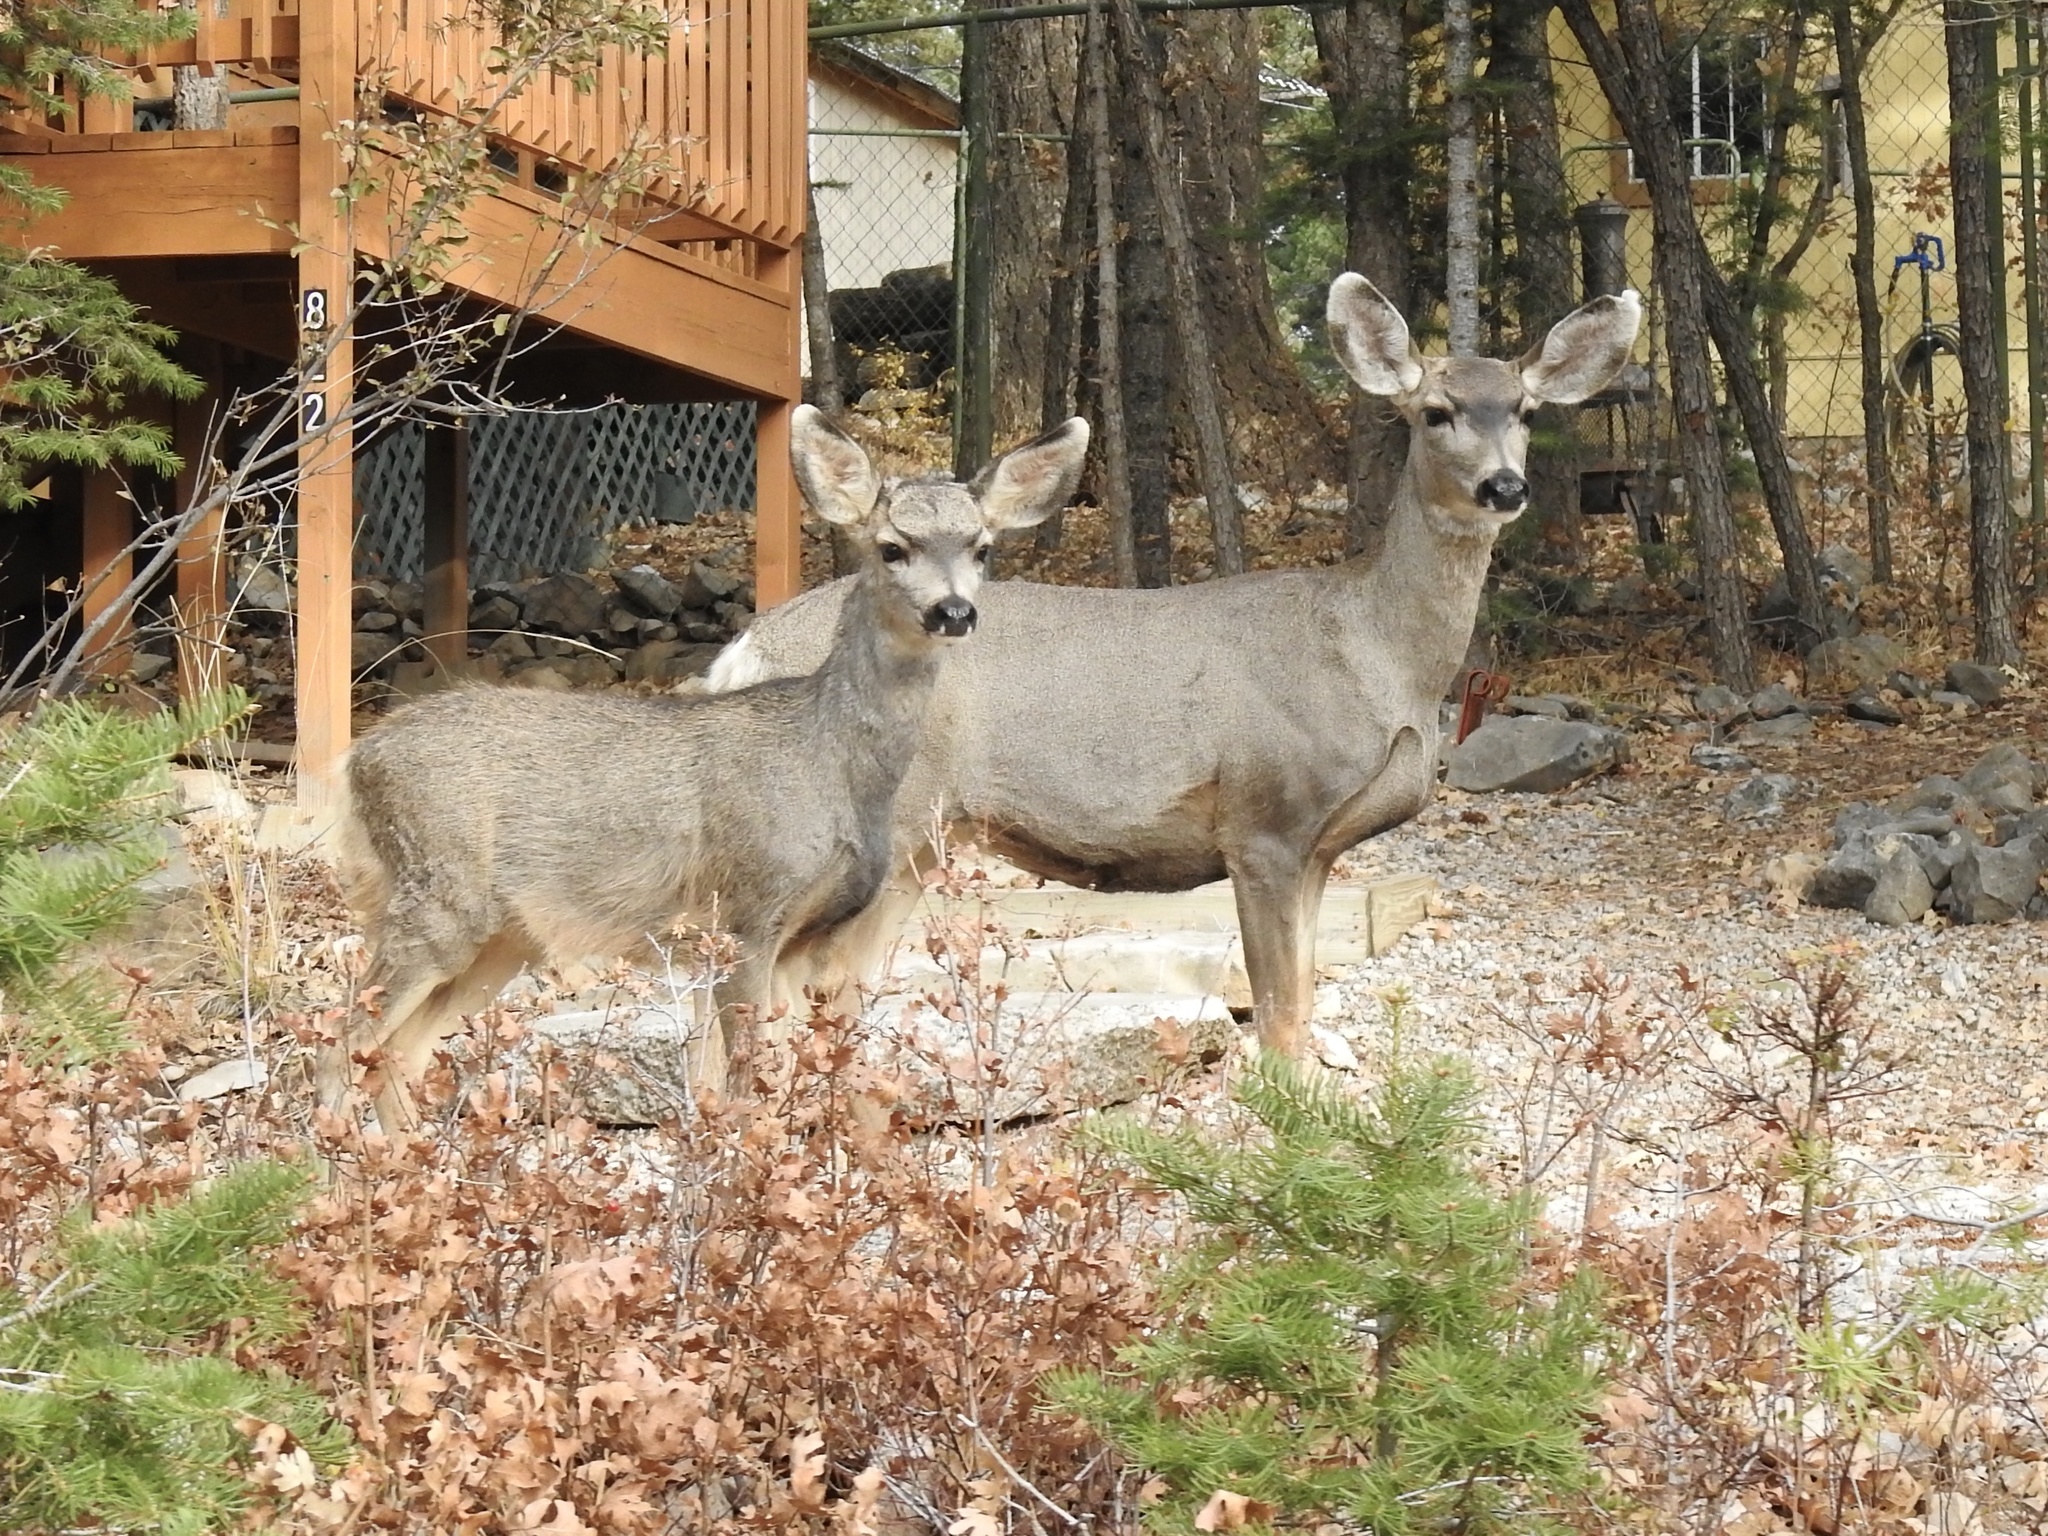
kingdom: Animalia
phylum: Chordata
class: Mammalia
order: Artiodactyla
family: Cervidae
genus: Odocoileus
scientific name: Odocoileus hemionus
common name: Mule deer
